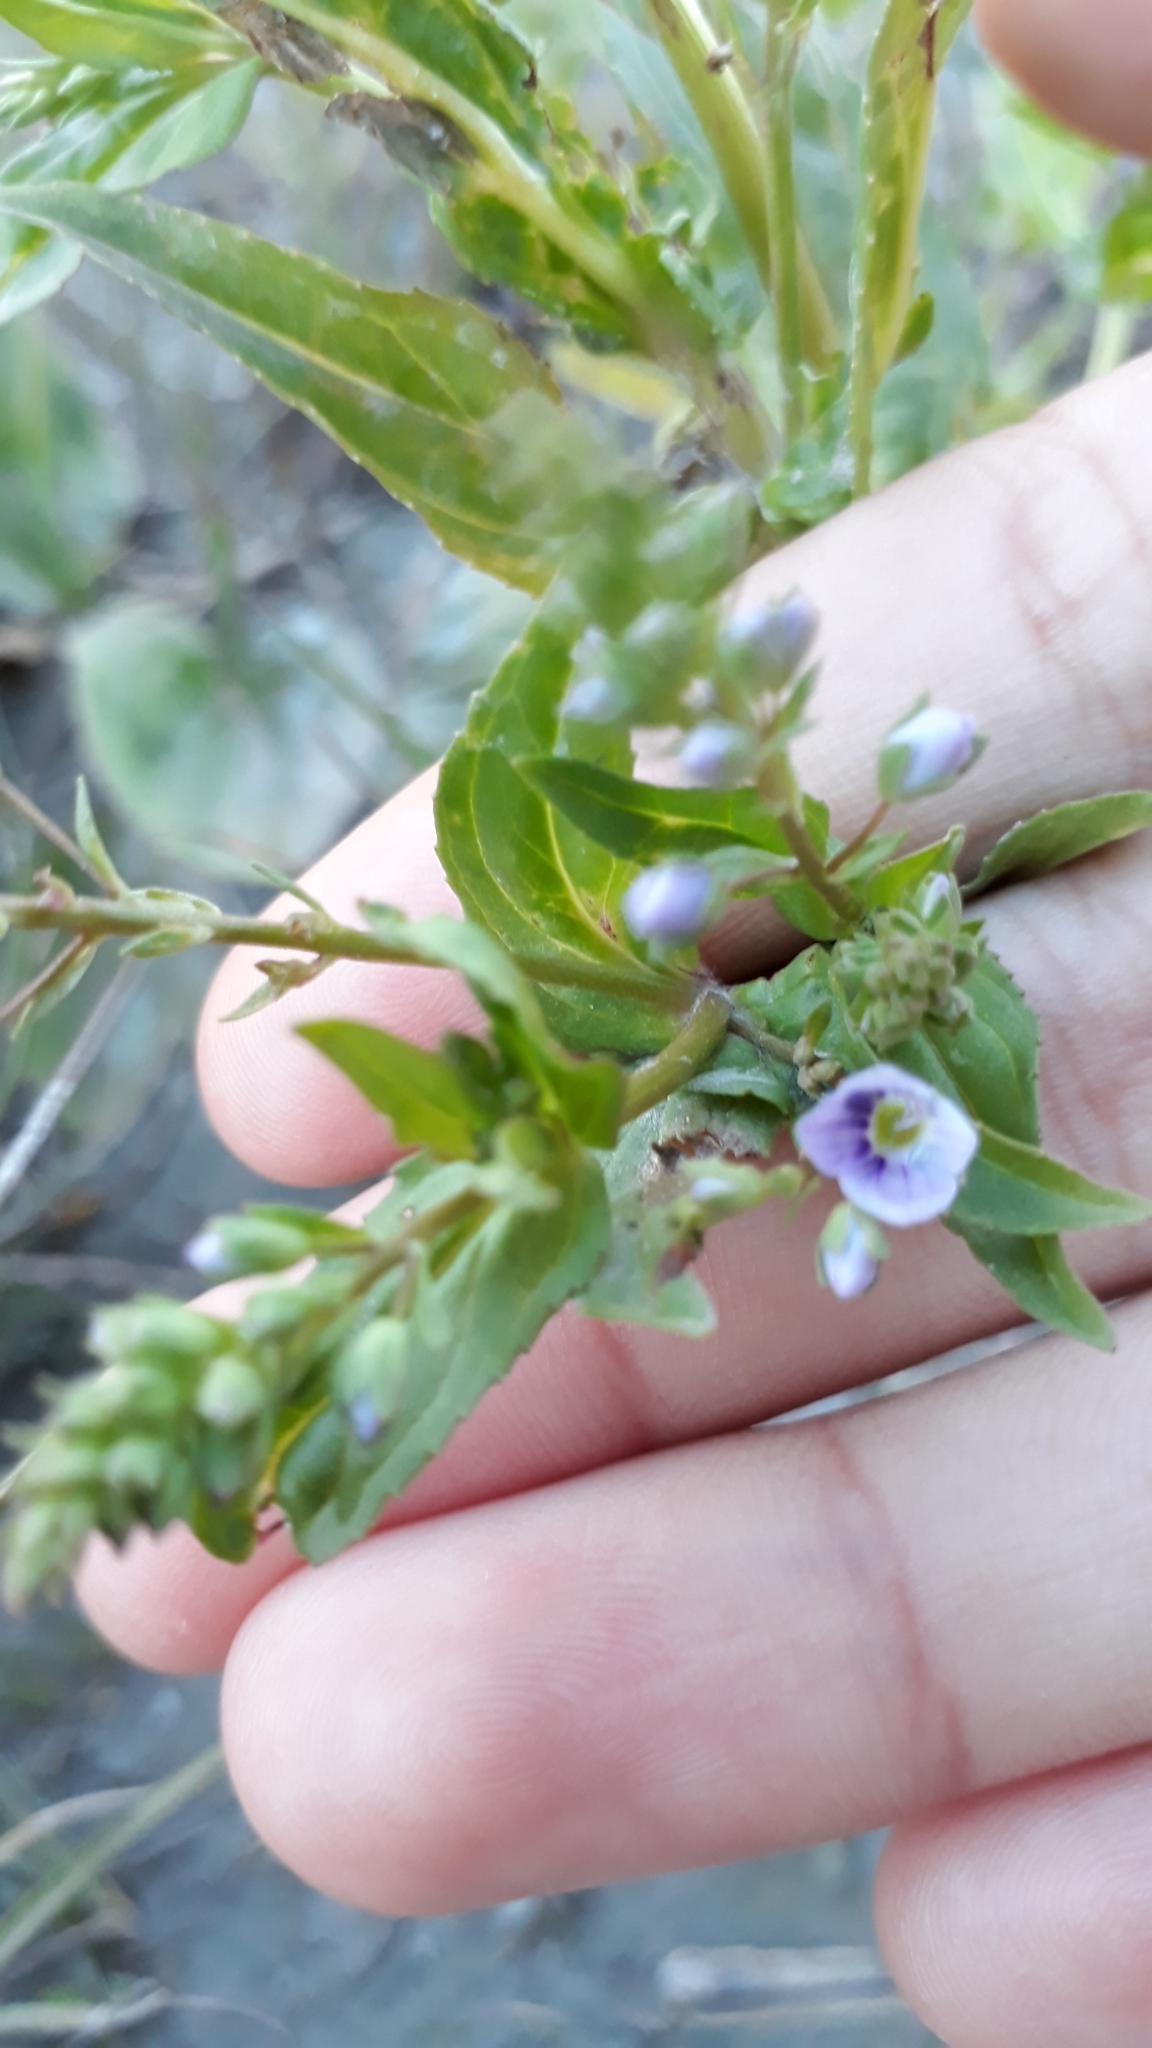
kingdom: Plantae
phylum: Tracheophyta
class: Magnoliopsida
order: Lamiales
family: Plantaginaceae
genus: Veronica
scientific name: Veronica anagallis-aquatica
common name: Water speedwell
